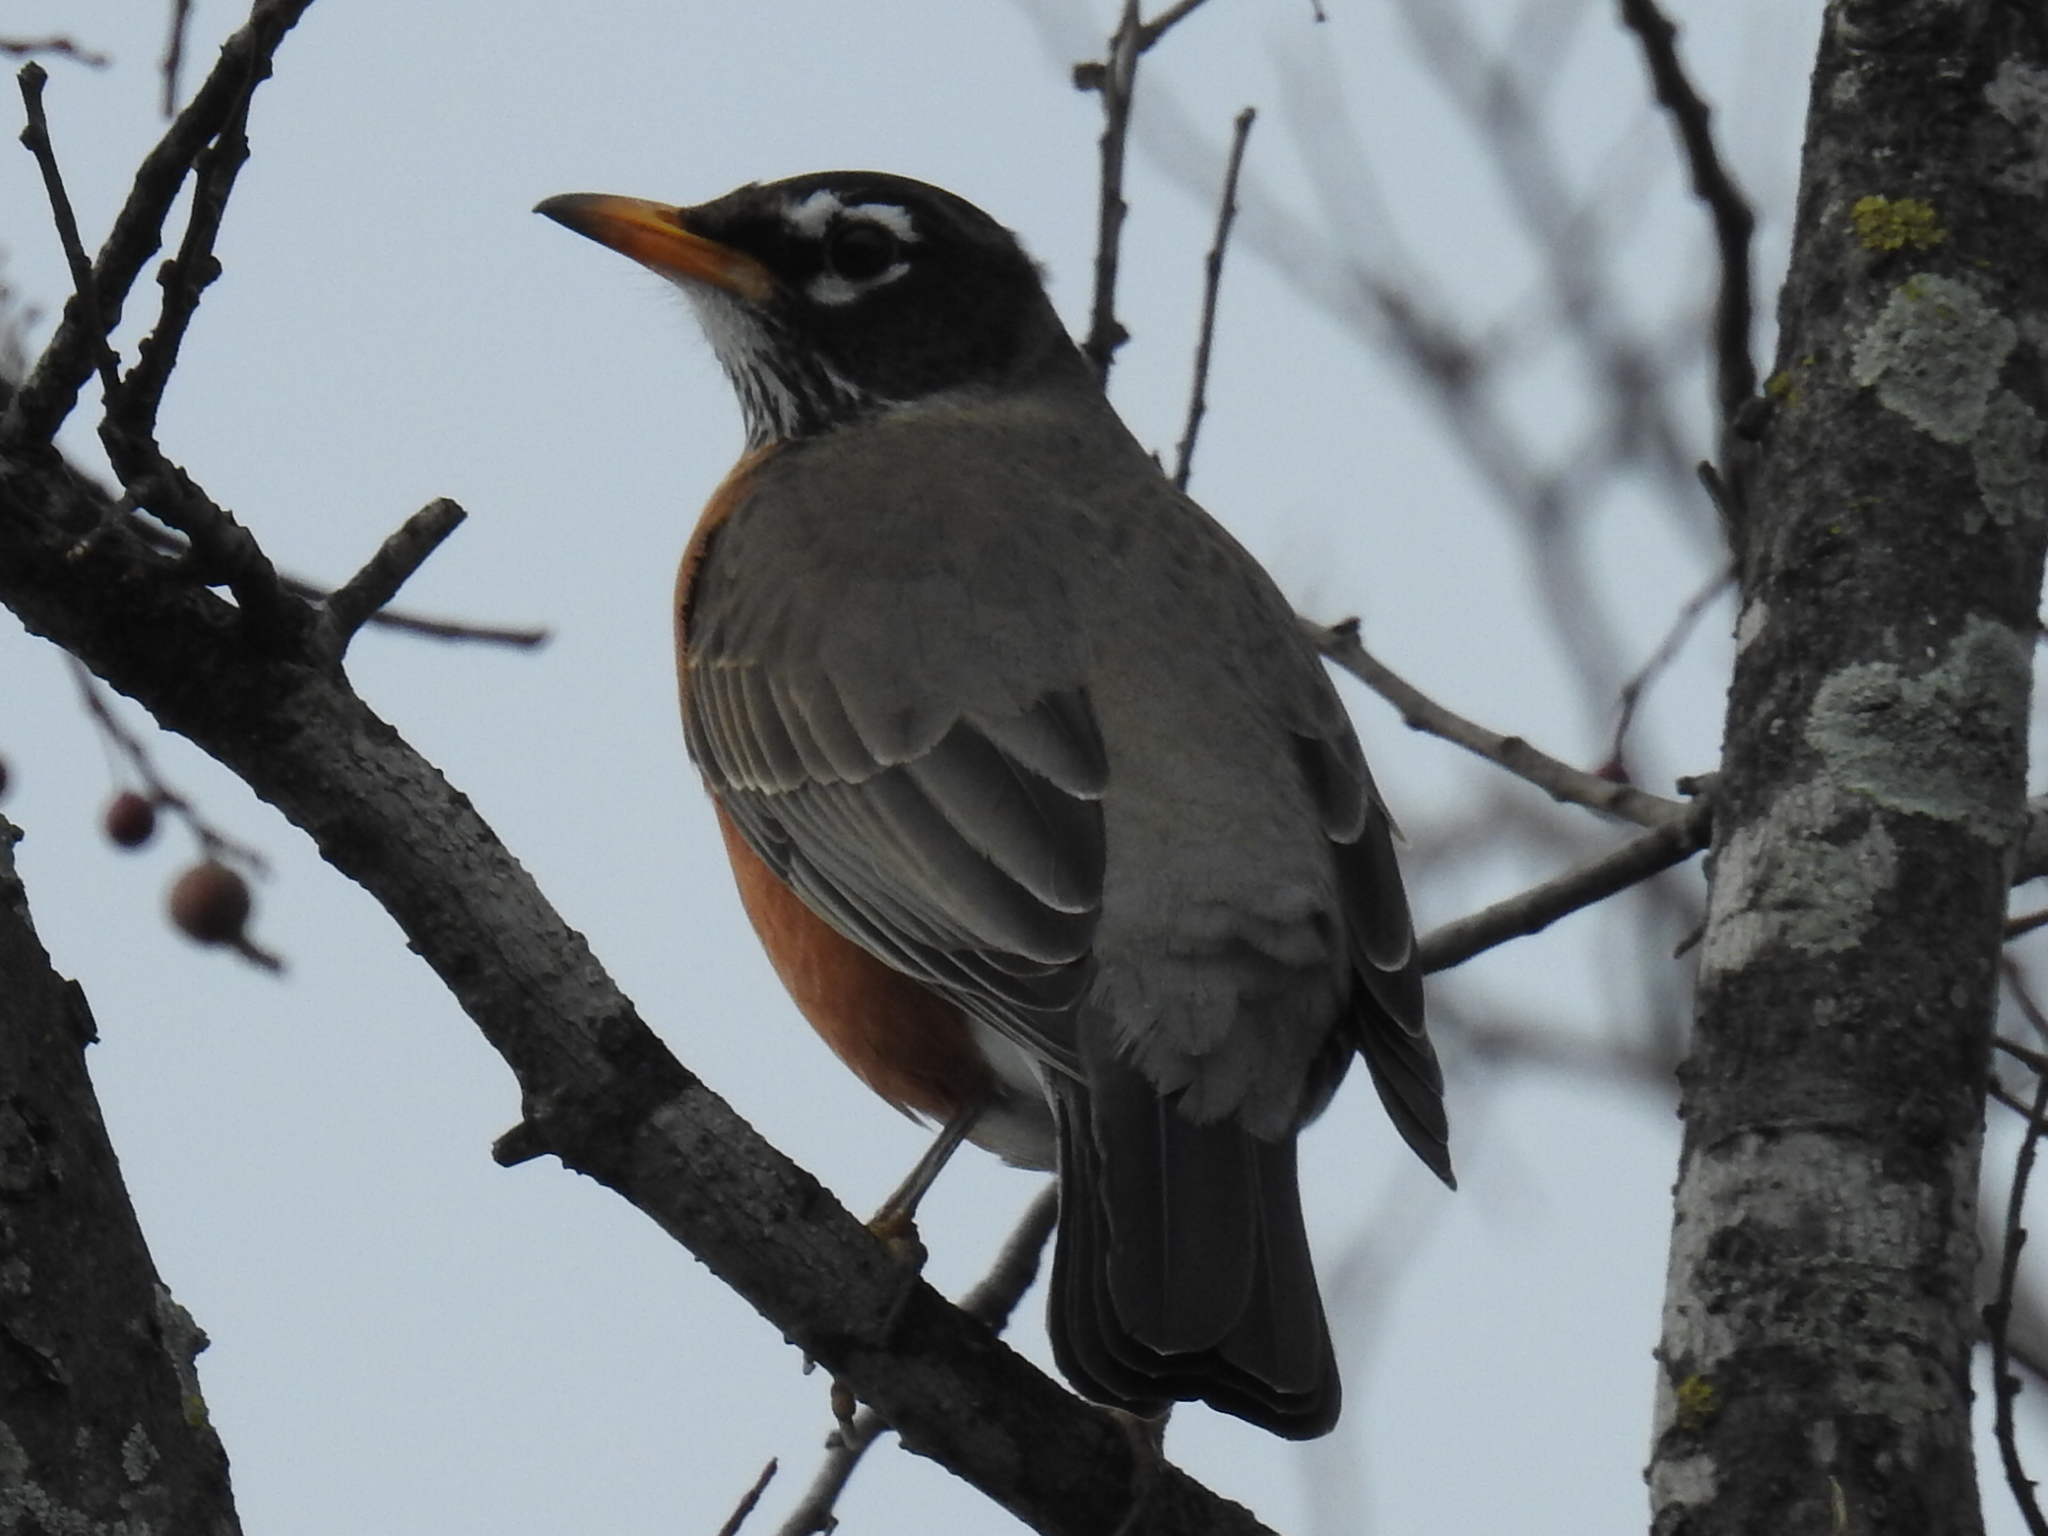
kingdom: Animalia
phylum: Chordata
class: Aves
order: Passeriformes
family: Turdidae
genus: Turdus
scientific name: Turdus migratorius
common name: American robin
